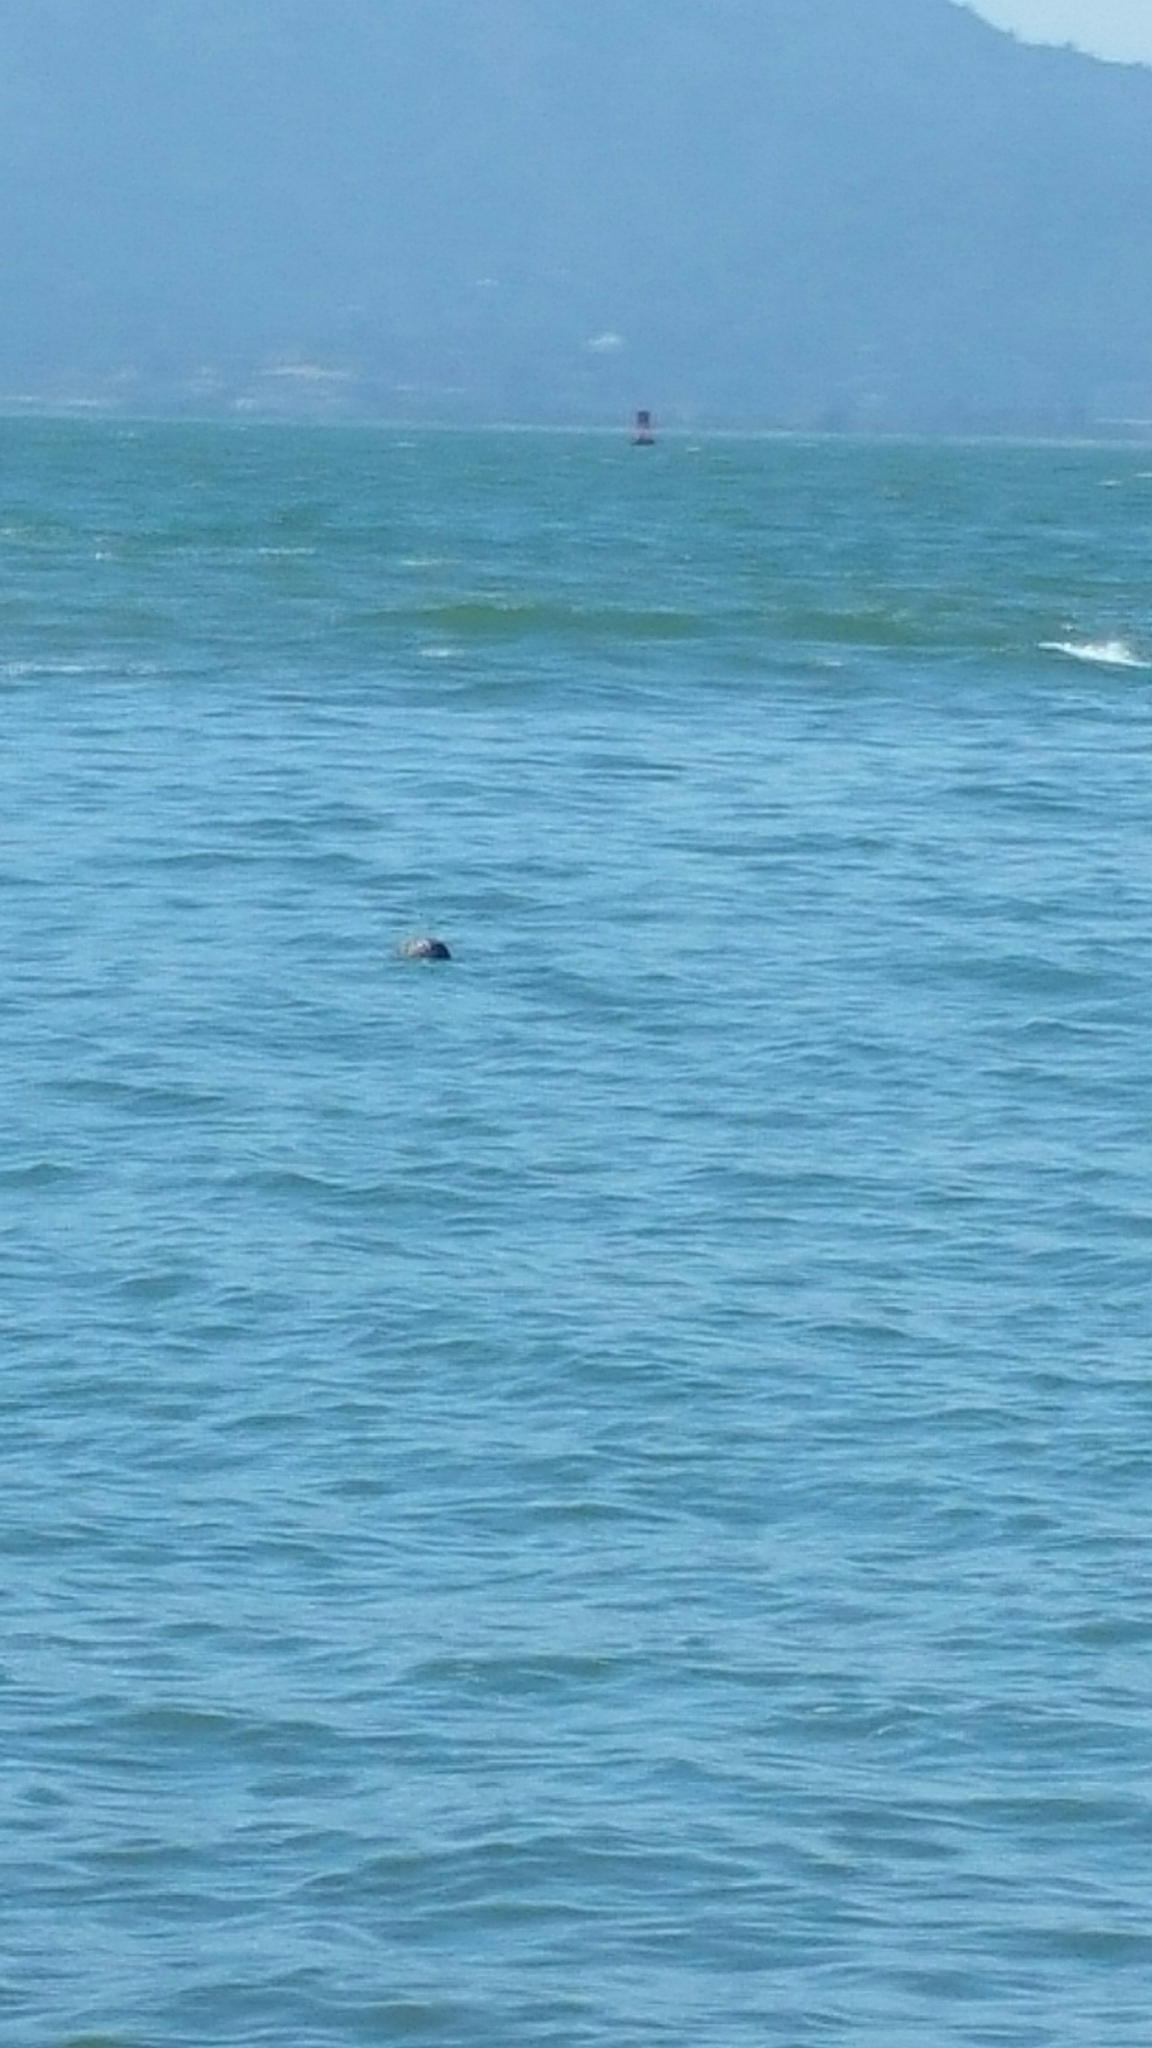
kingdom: Animalia
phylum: Chordata
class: Mammalia
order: Carnivora
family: Phocidae
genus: Phoca
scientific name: Phoca vitulina
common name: Harbor seal
